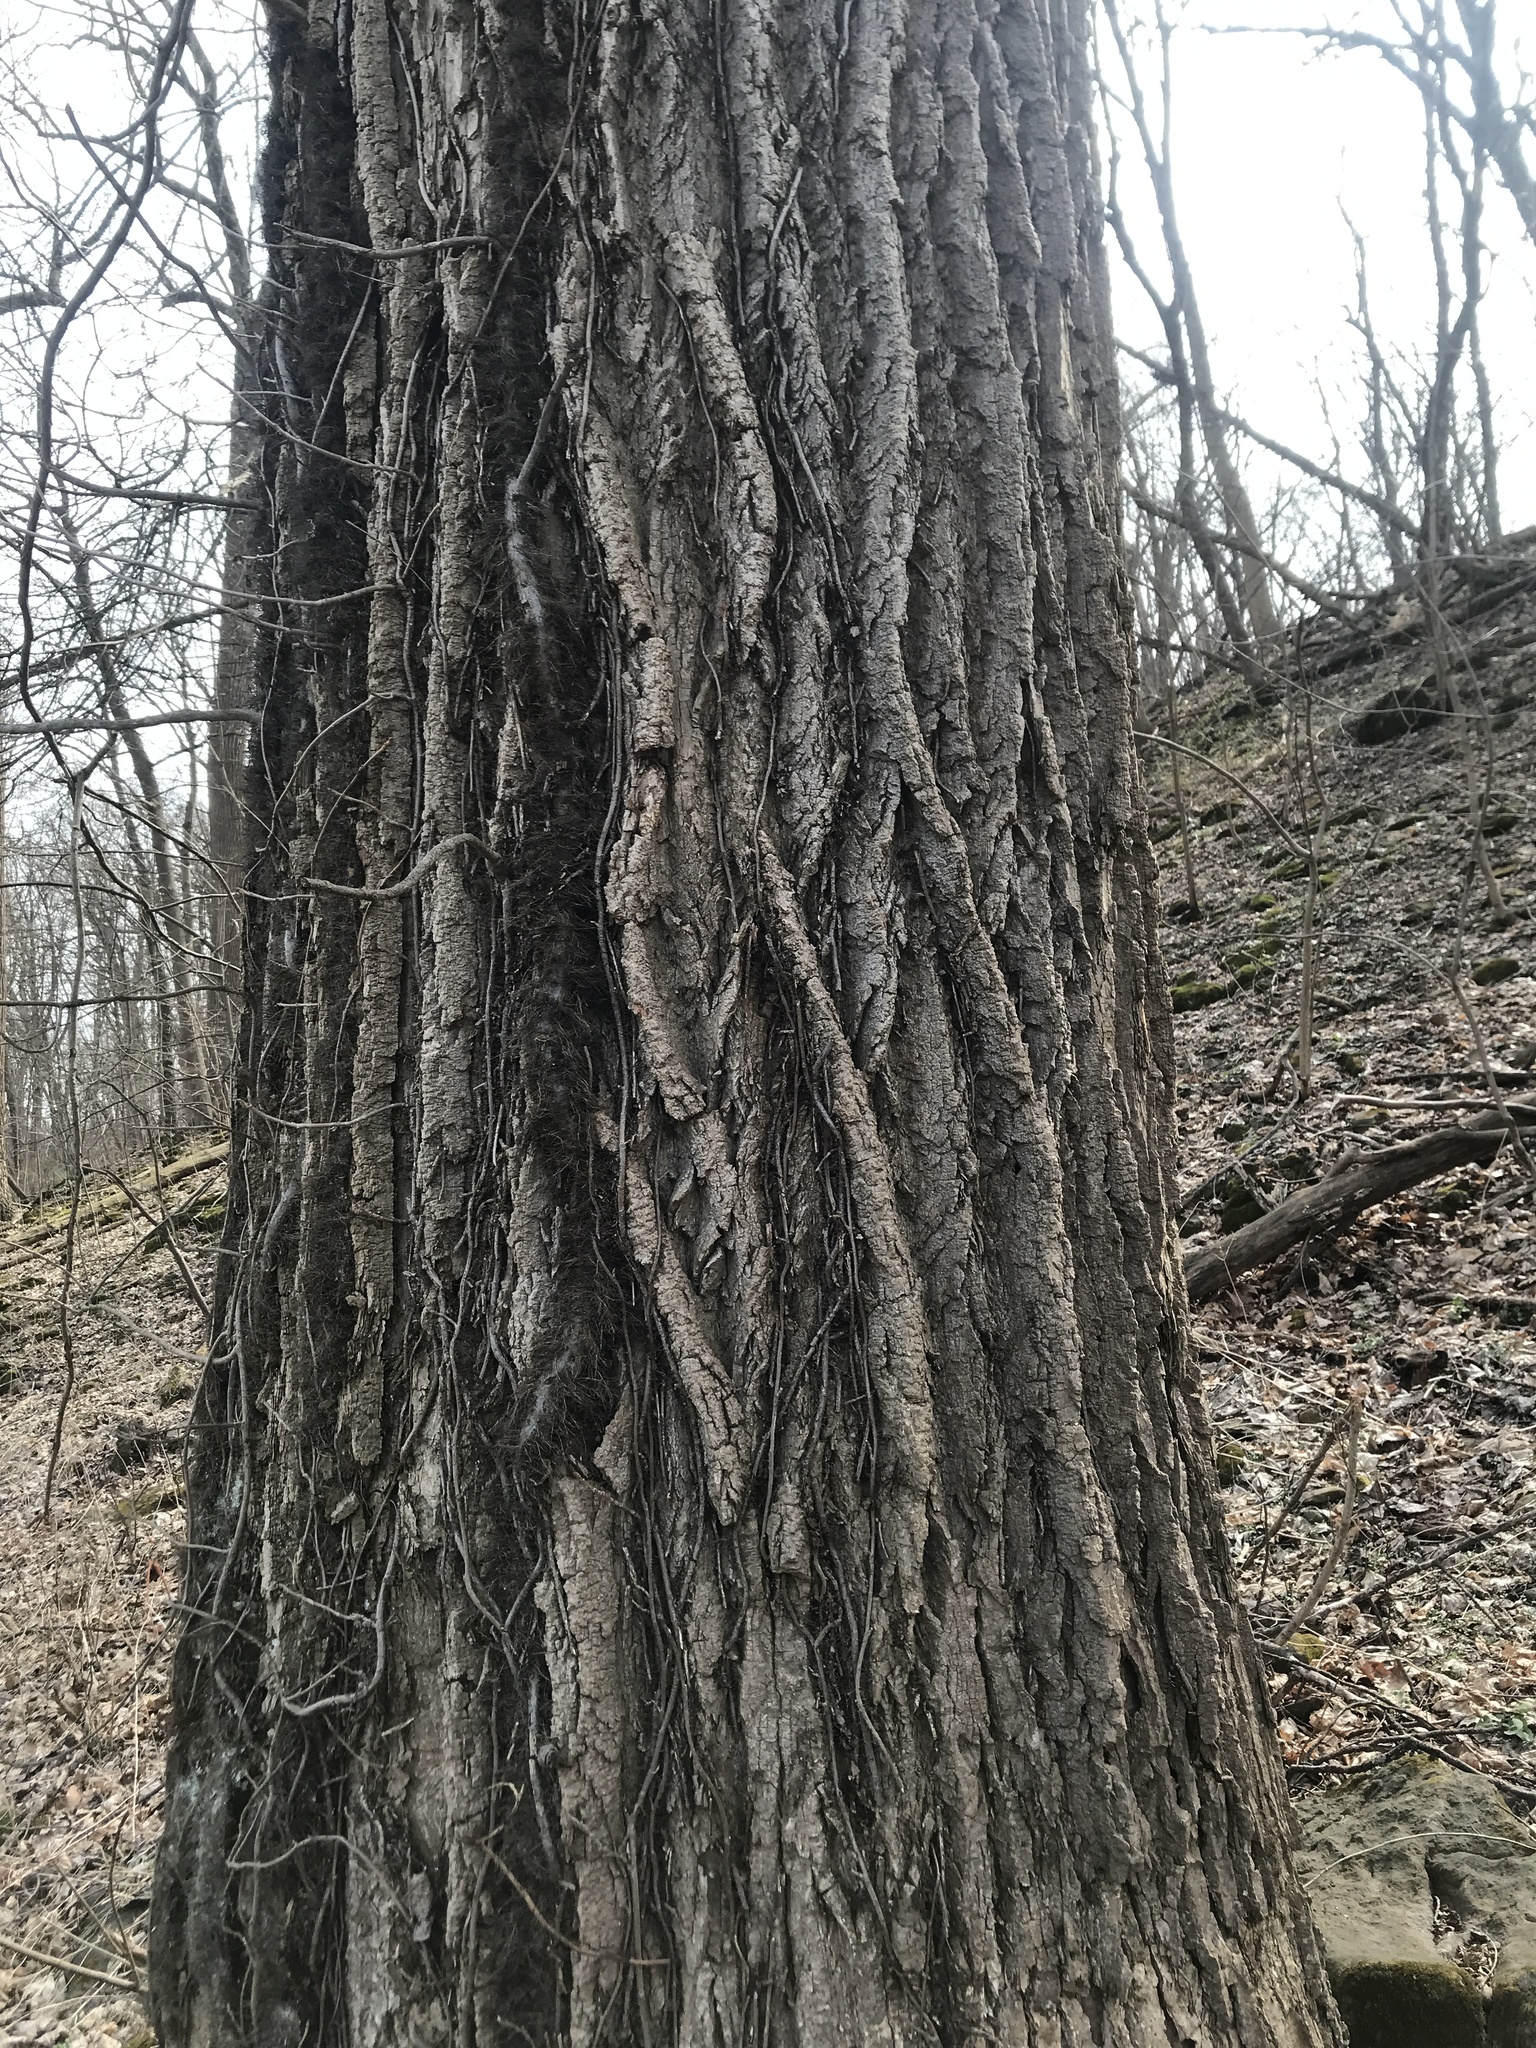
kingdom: Plantae
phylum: Tracheophyta
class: Magnoliopsida
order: Magnoliales
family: Magnoliaceae
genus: Liriodendron
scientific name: Liriodendron tulipifera
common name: Tulip tree
